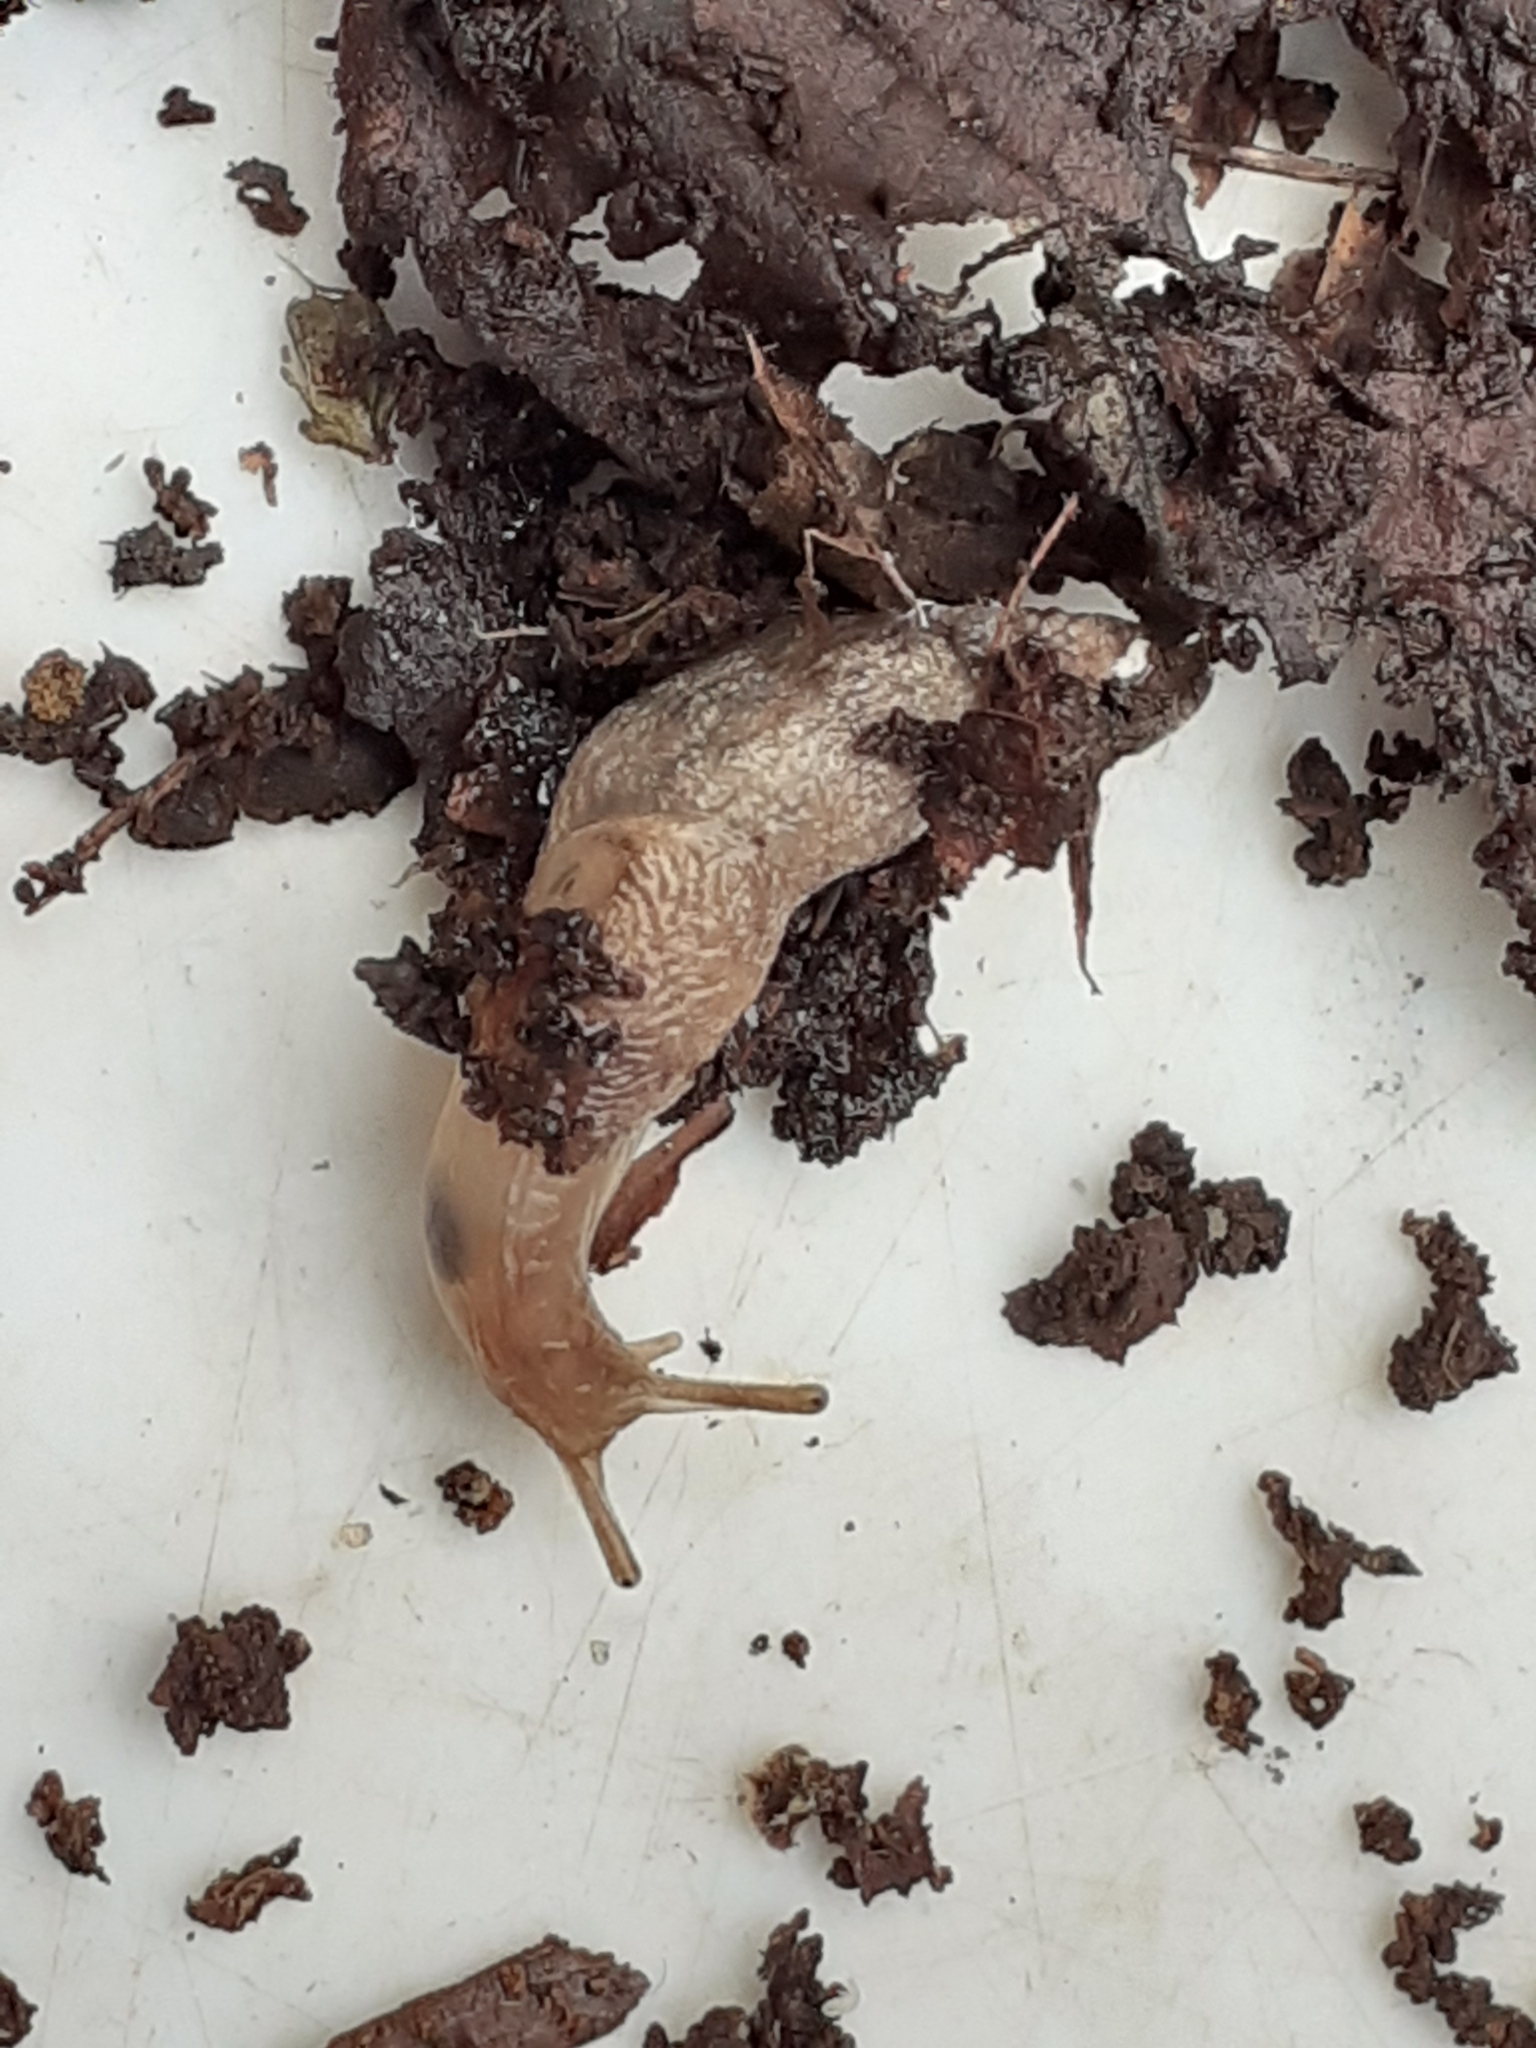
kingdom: Animalia
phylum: Mollusca
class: Gastropoda
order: Stylommatophora
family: Agriolimacidae
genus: Deroceras
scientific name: Deroceras reticulatum
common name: Gray field slug
